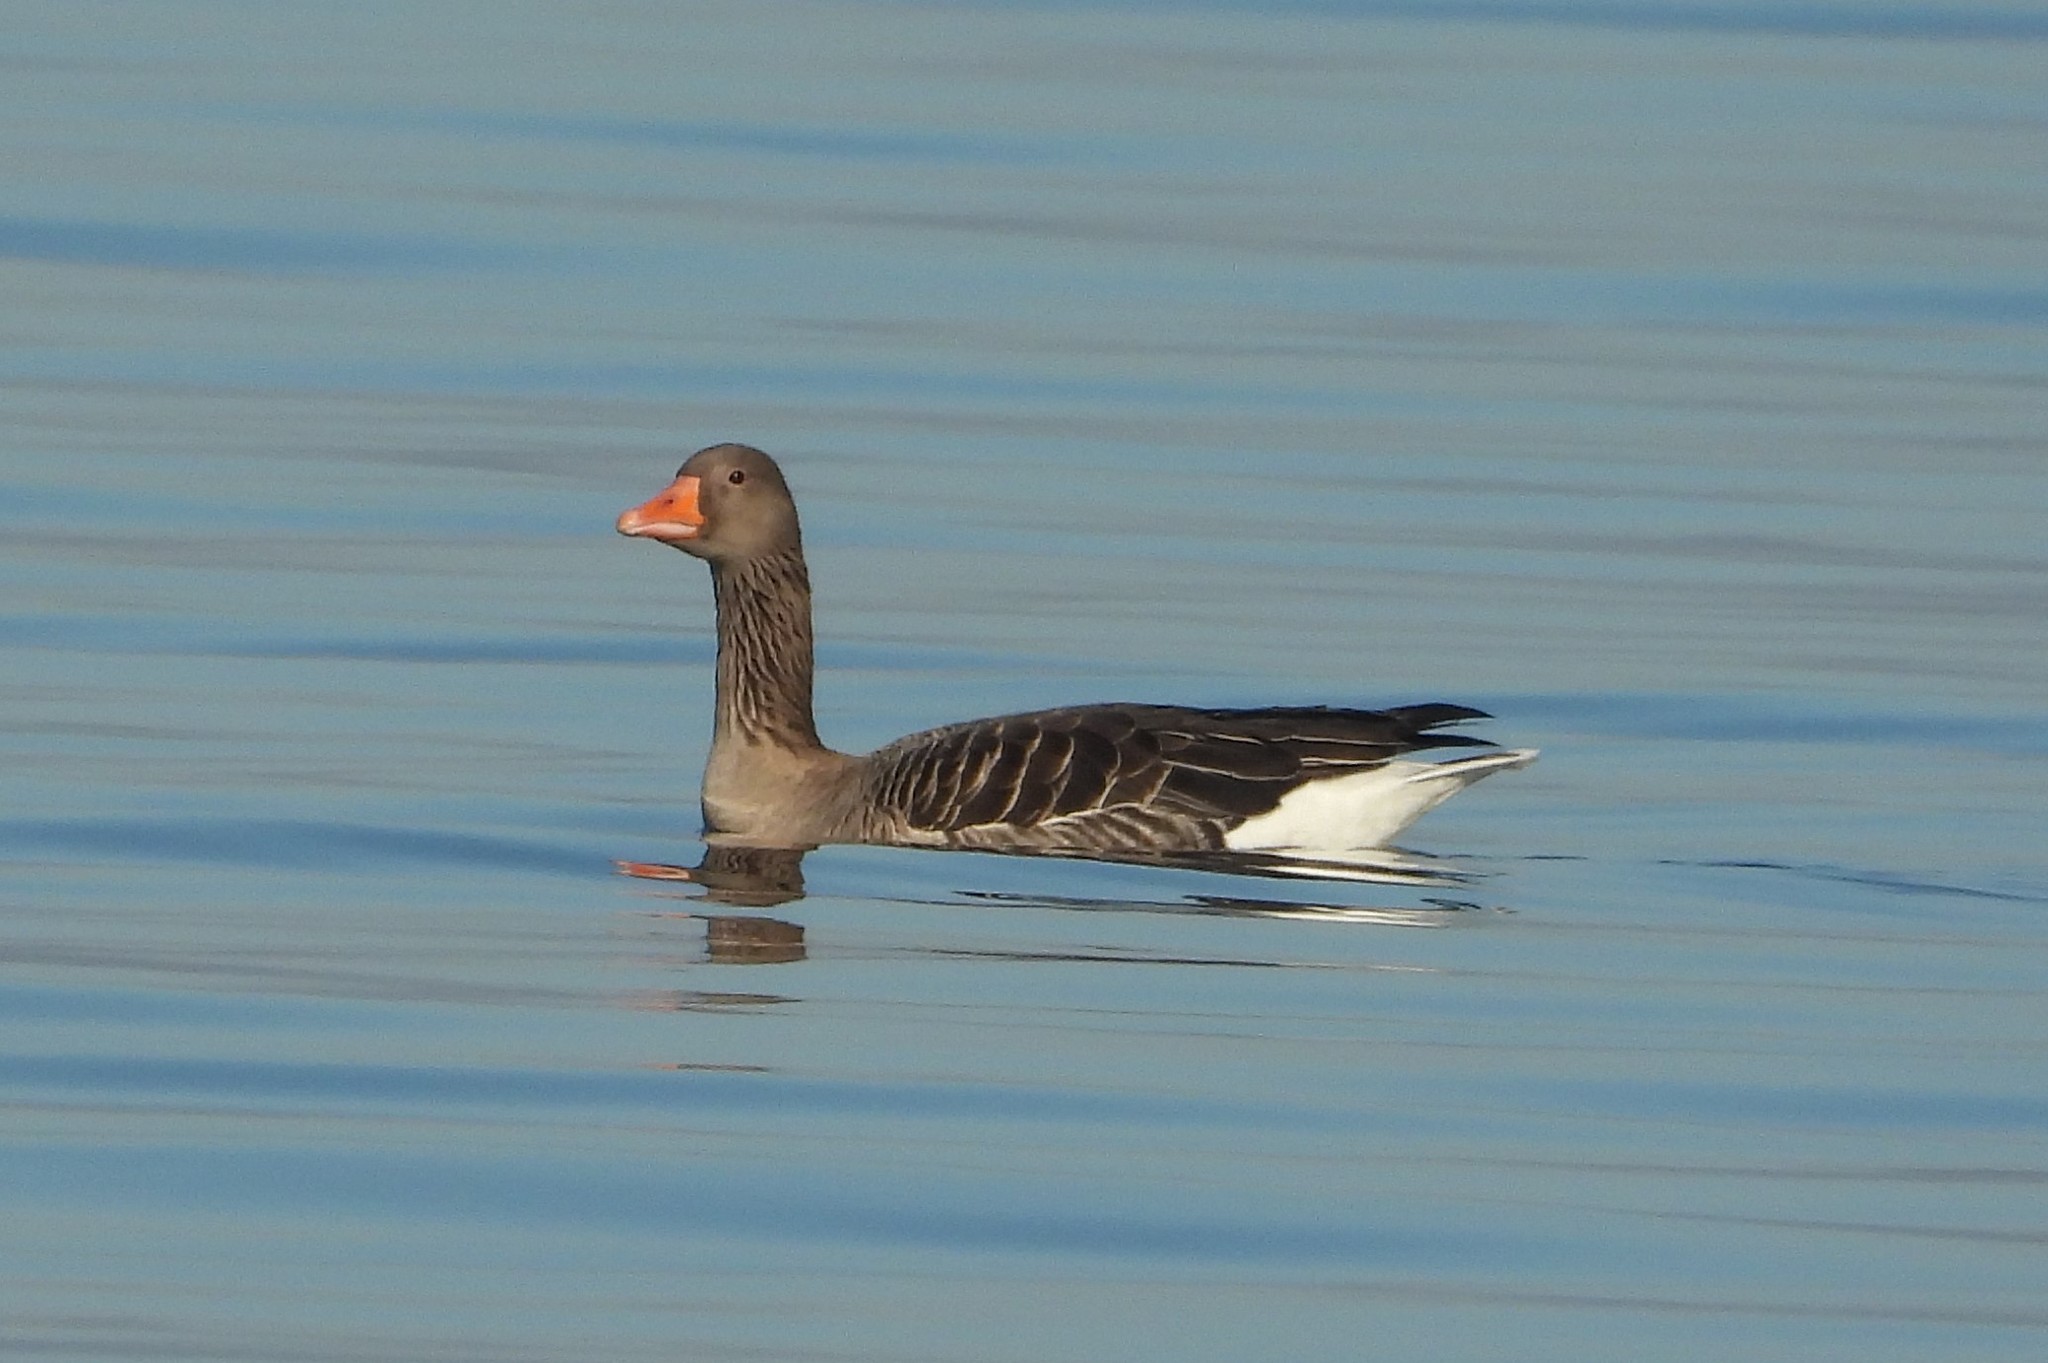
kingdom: Animalia
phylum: Chordata
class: Aves
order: Anseriformes
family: Anatidae
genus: Anser
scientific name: Anser anser
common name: Greylag goose
